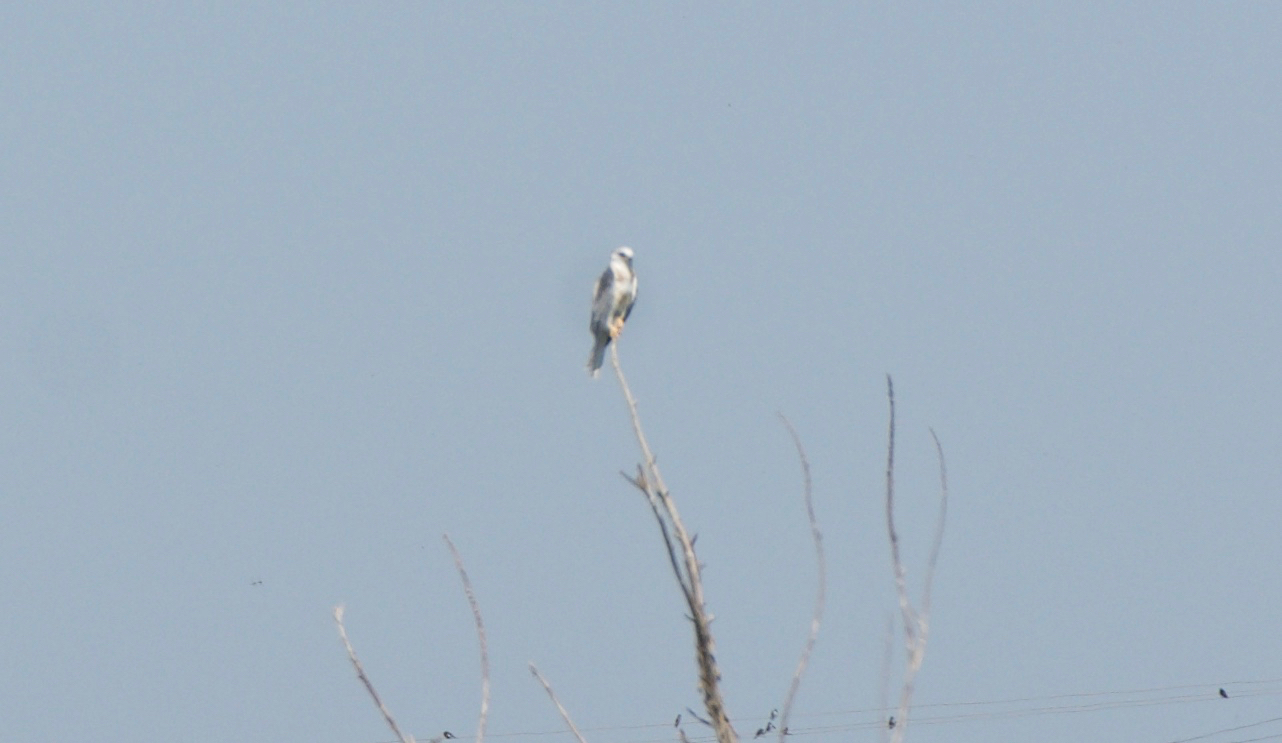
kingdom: Animalia
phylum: Chordata
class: Aves
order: Accipitriformes
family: Accipitridae
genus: Elanus
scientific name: Elanus leucurus
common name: White-tailed kite
